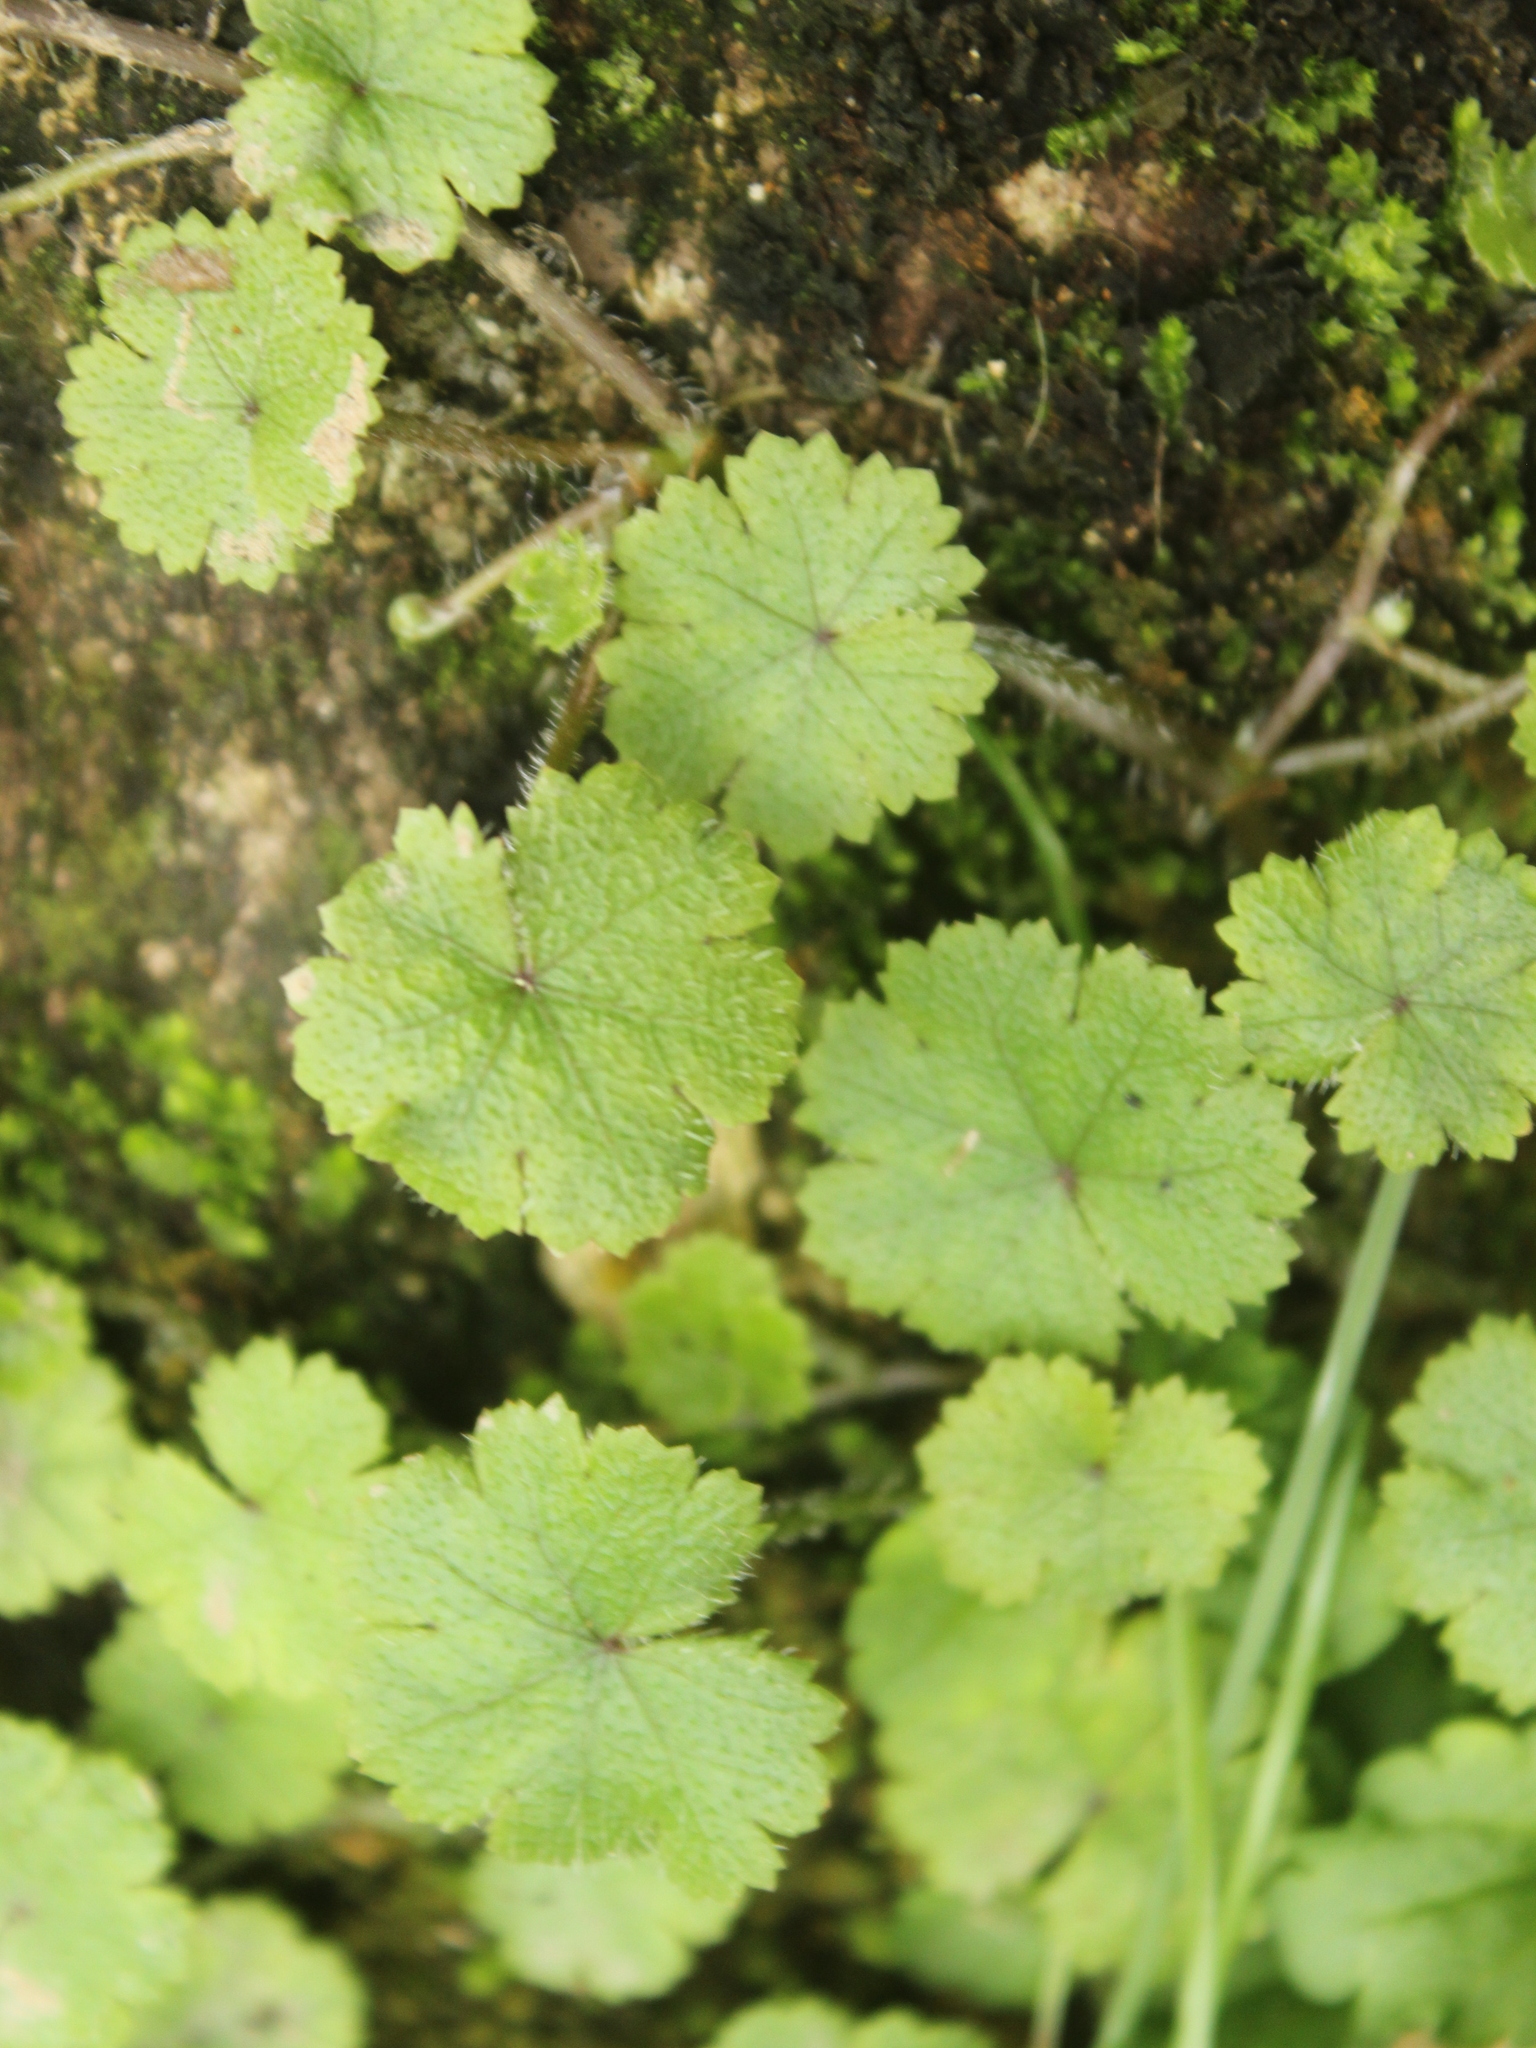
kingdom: Plantae
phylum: Tracheophyta
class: Magnoliopsida
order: Apiales
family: Araliaceae
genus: Hydrocotyle
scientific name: Hydrocotyle moschata
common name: Hairy pennywort
